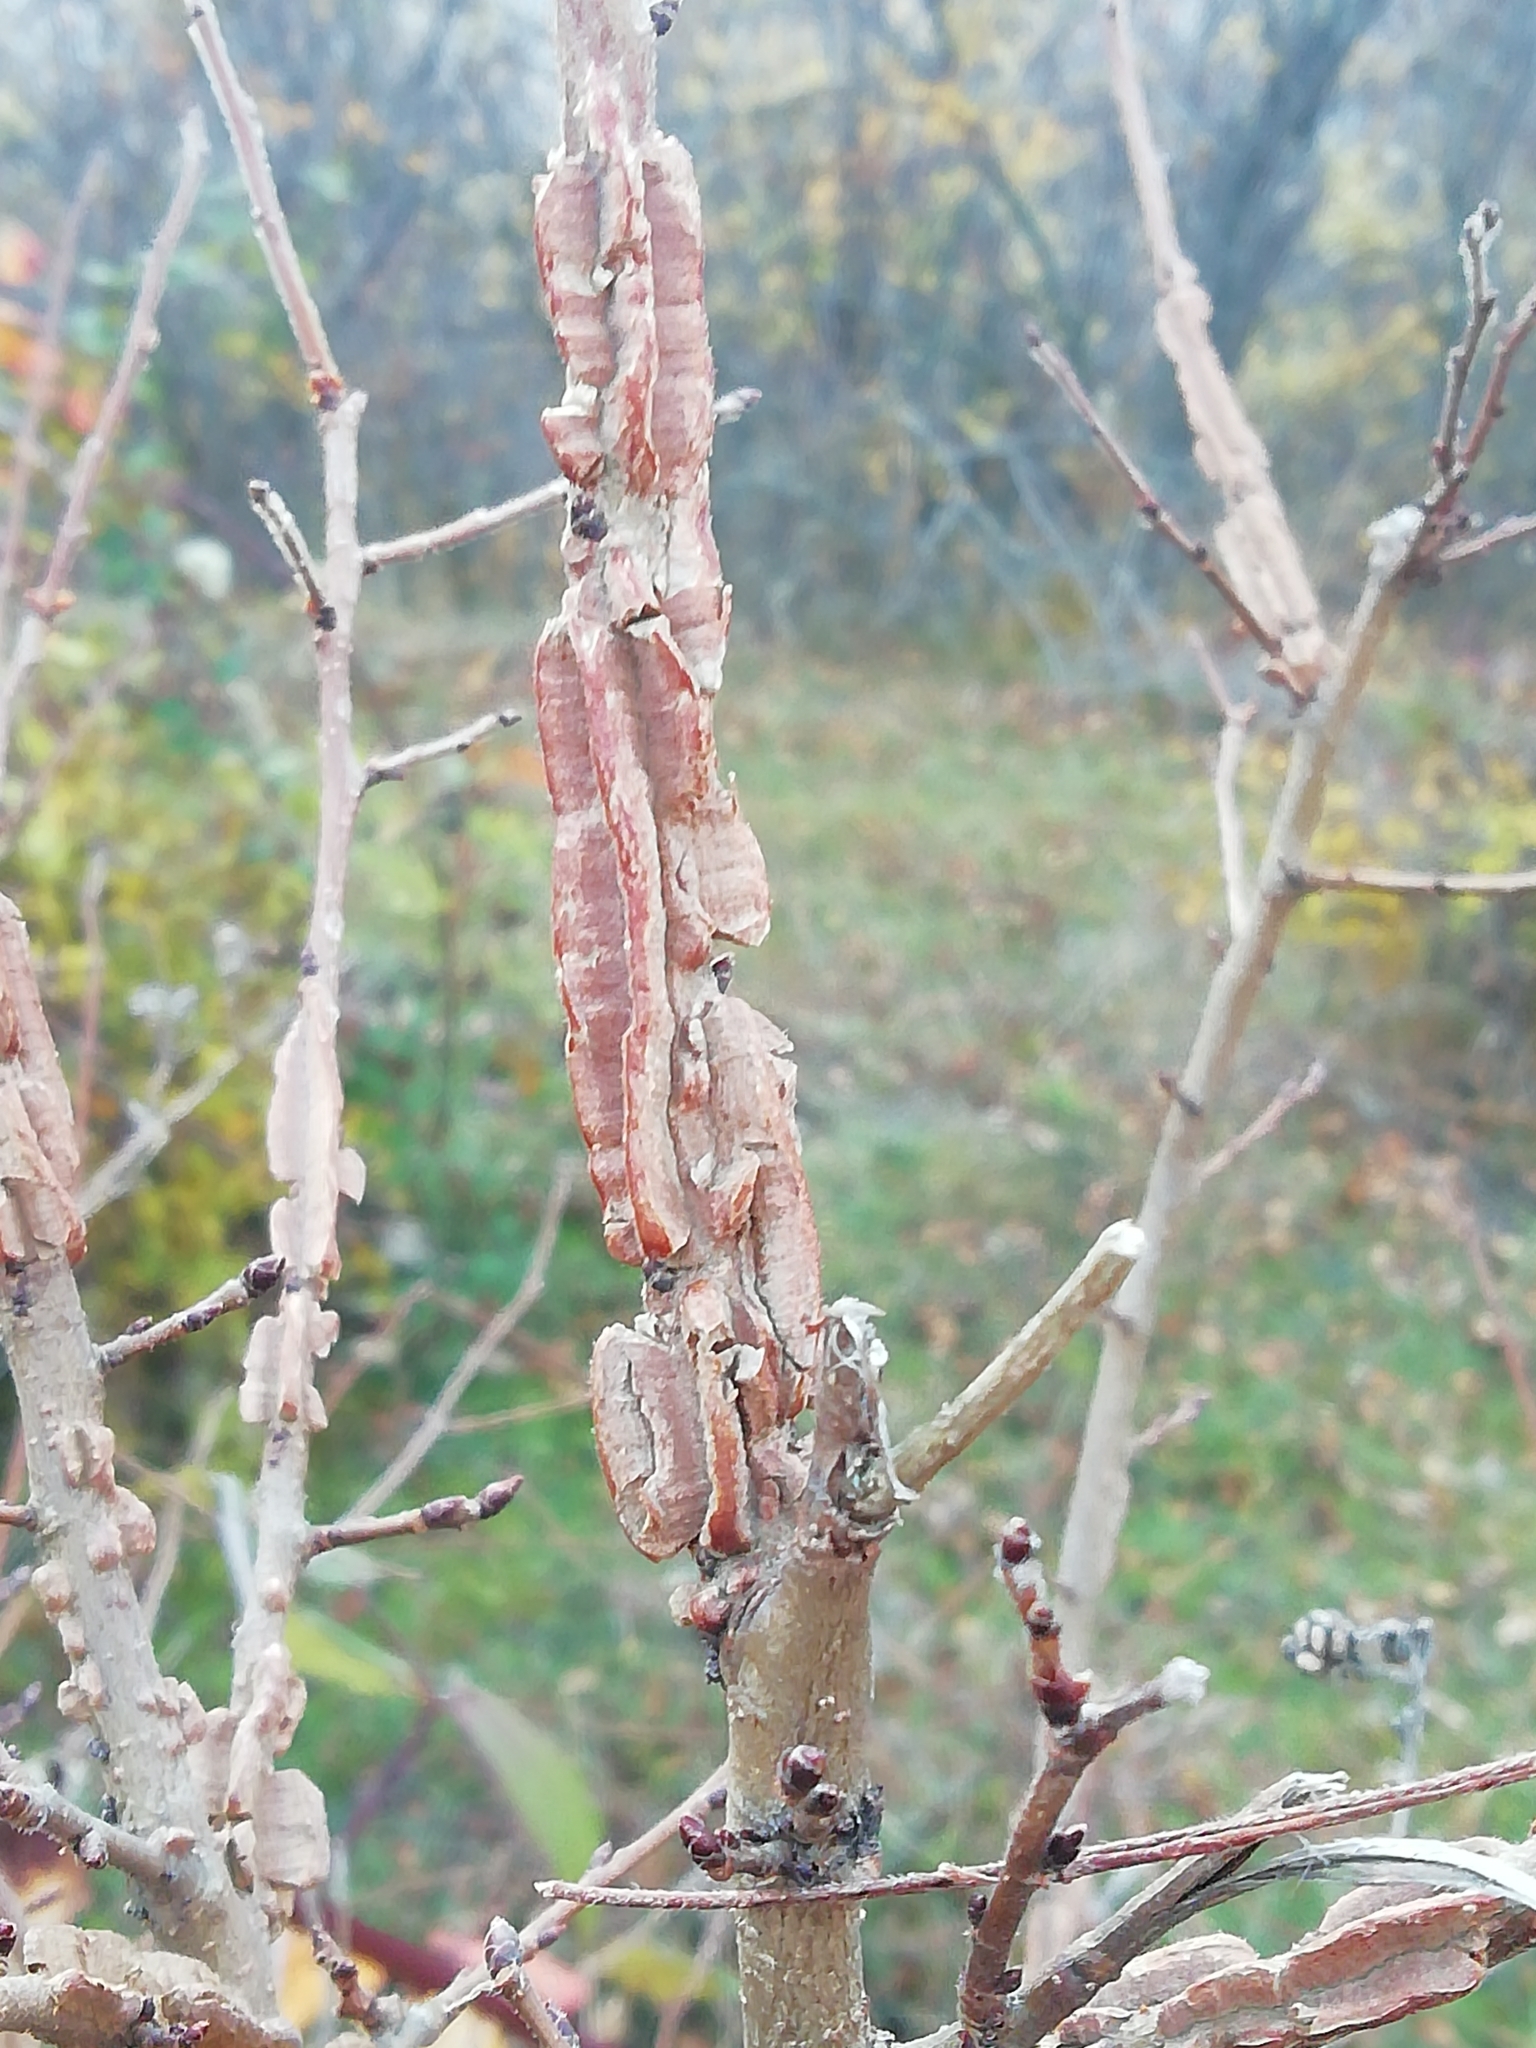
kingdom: Plantae
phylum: Tracheophyta
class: Magnoliopsida
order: Rosales
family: Ulmaceae
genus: Ulmus
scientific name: Ulmus minor
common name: Small-leaved elm
